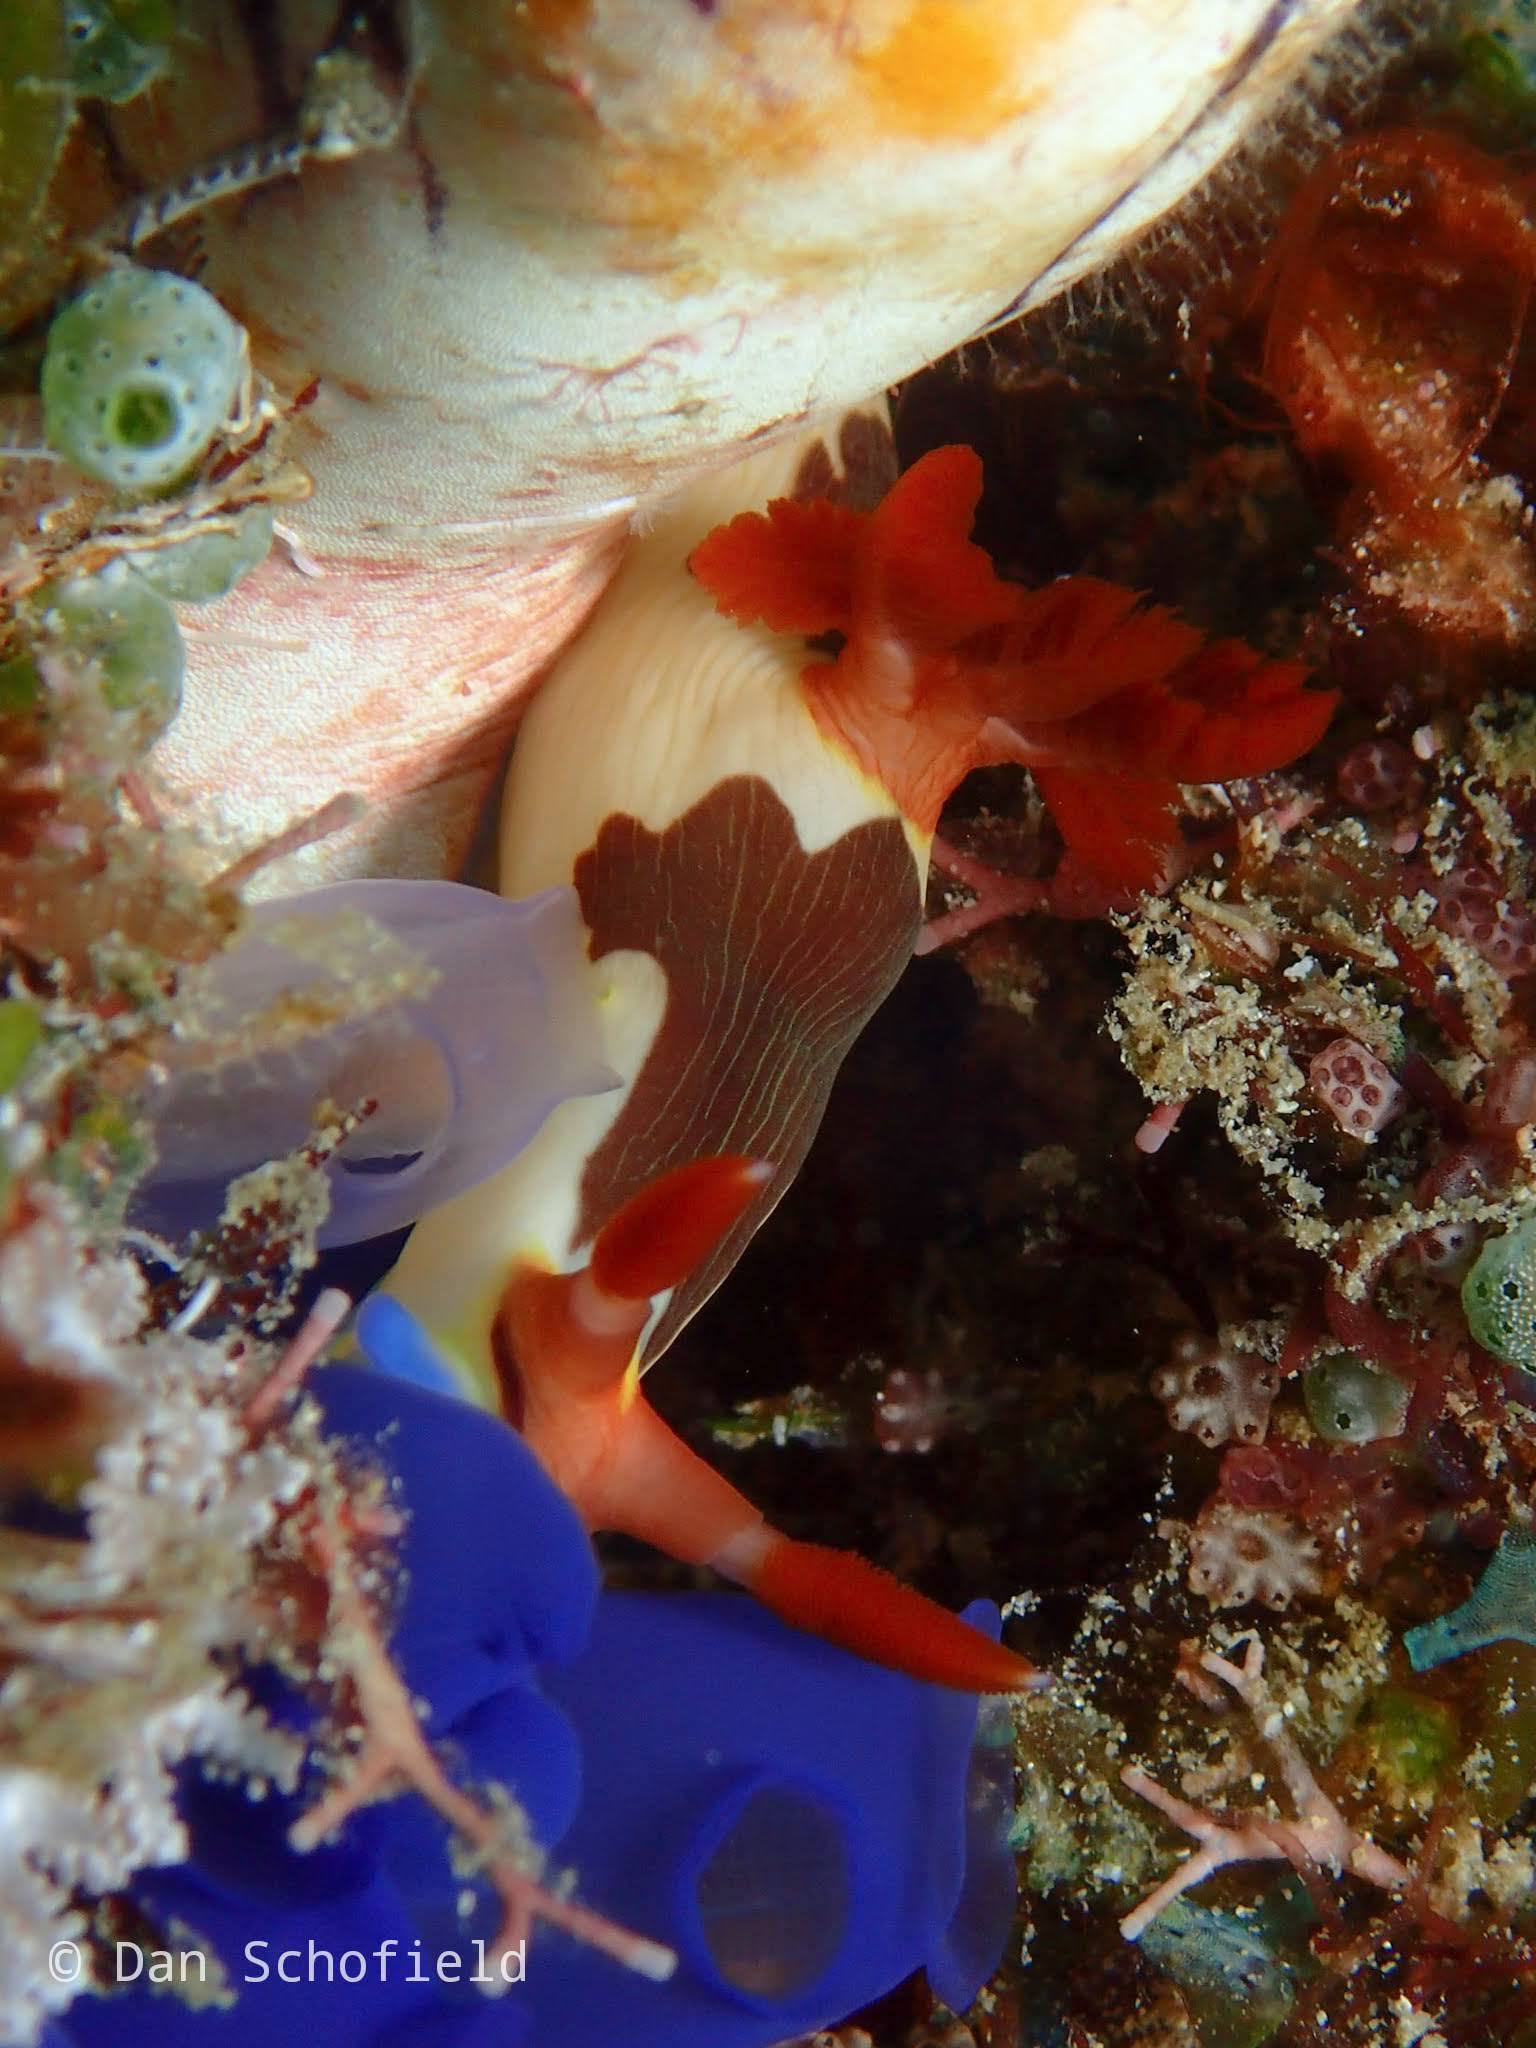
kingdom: Animalia
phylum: Mollusca
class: Gastropoda
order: Nudibranchia
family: Polyceridae
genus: Nembrotha
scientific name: Nembrotha chamberlaini
